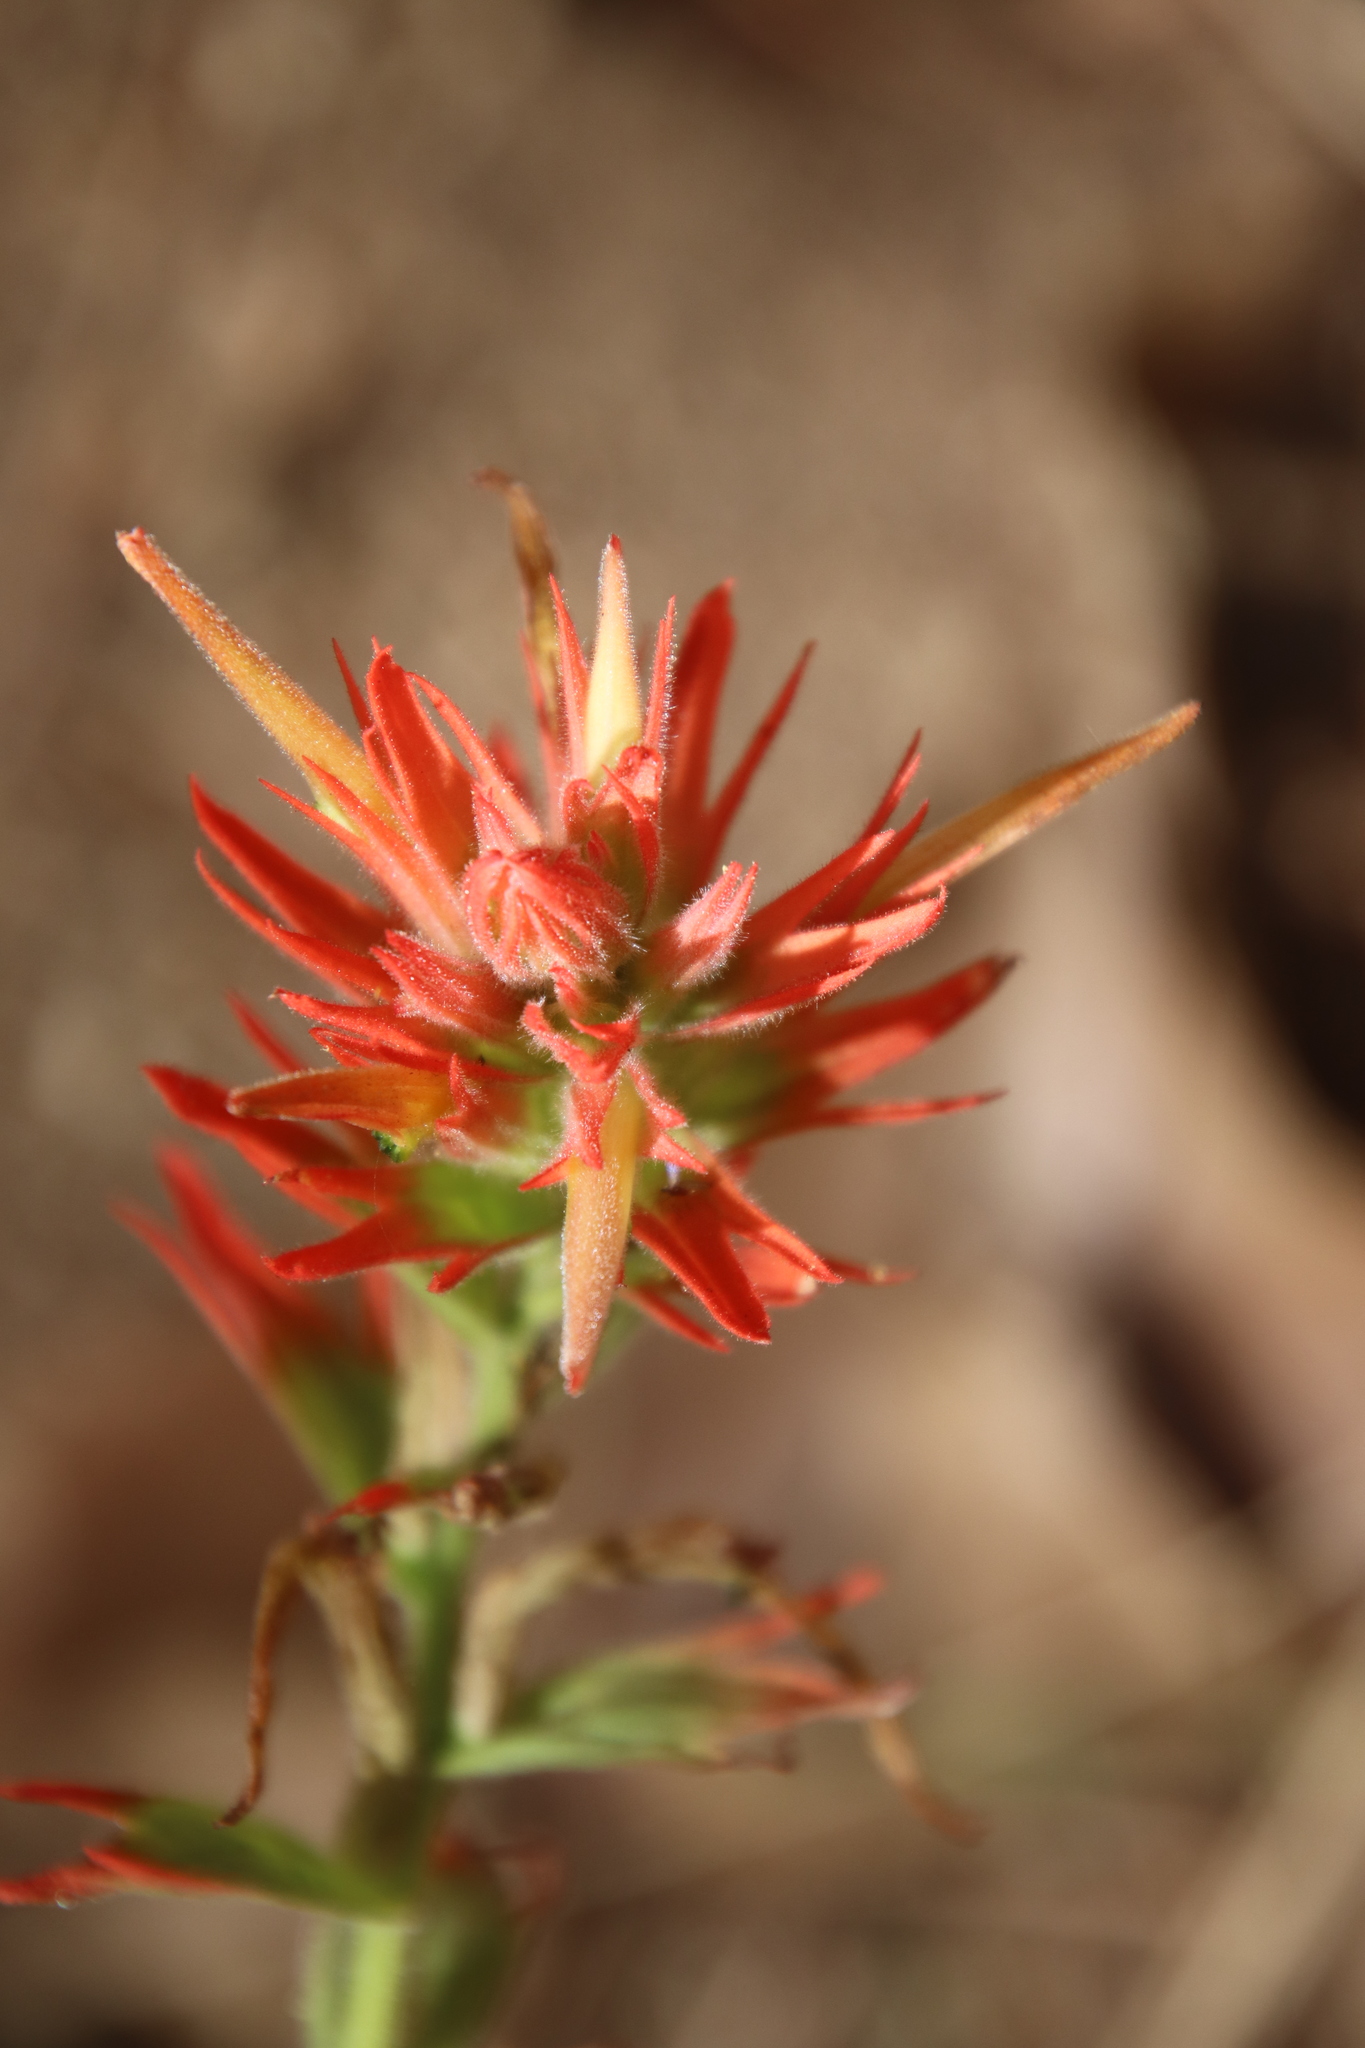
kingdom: Plantae
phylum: Tracheophyta
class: Magnoliopsida
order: Lamiales
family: Orobanchaceae
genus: Castilleja
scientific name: Castilleja miniata
